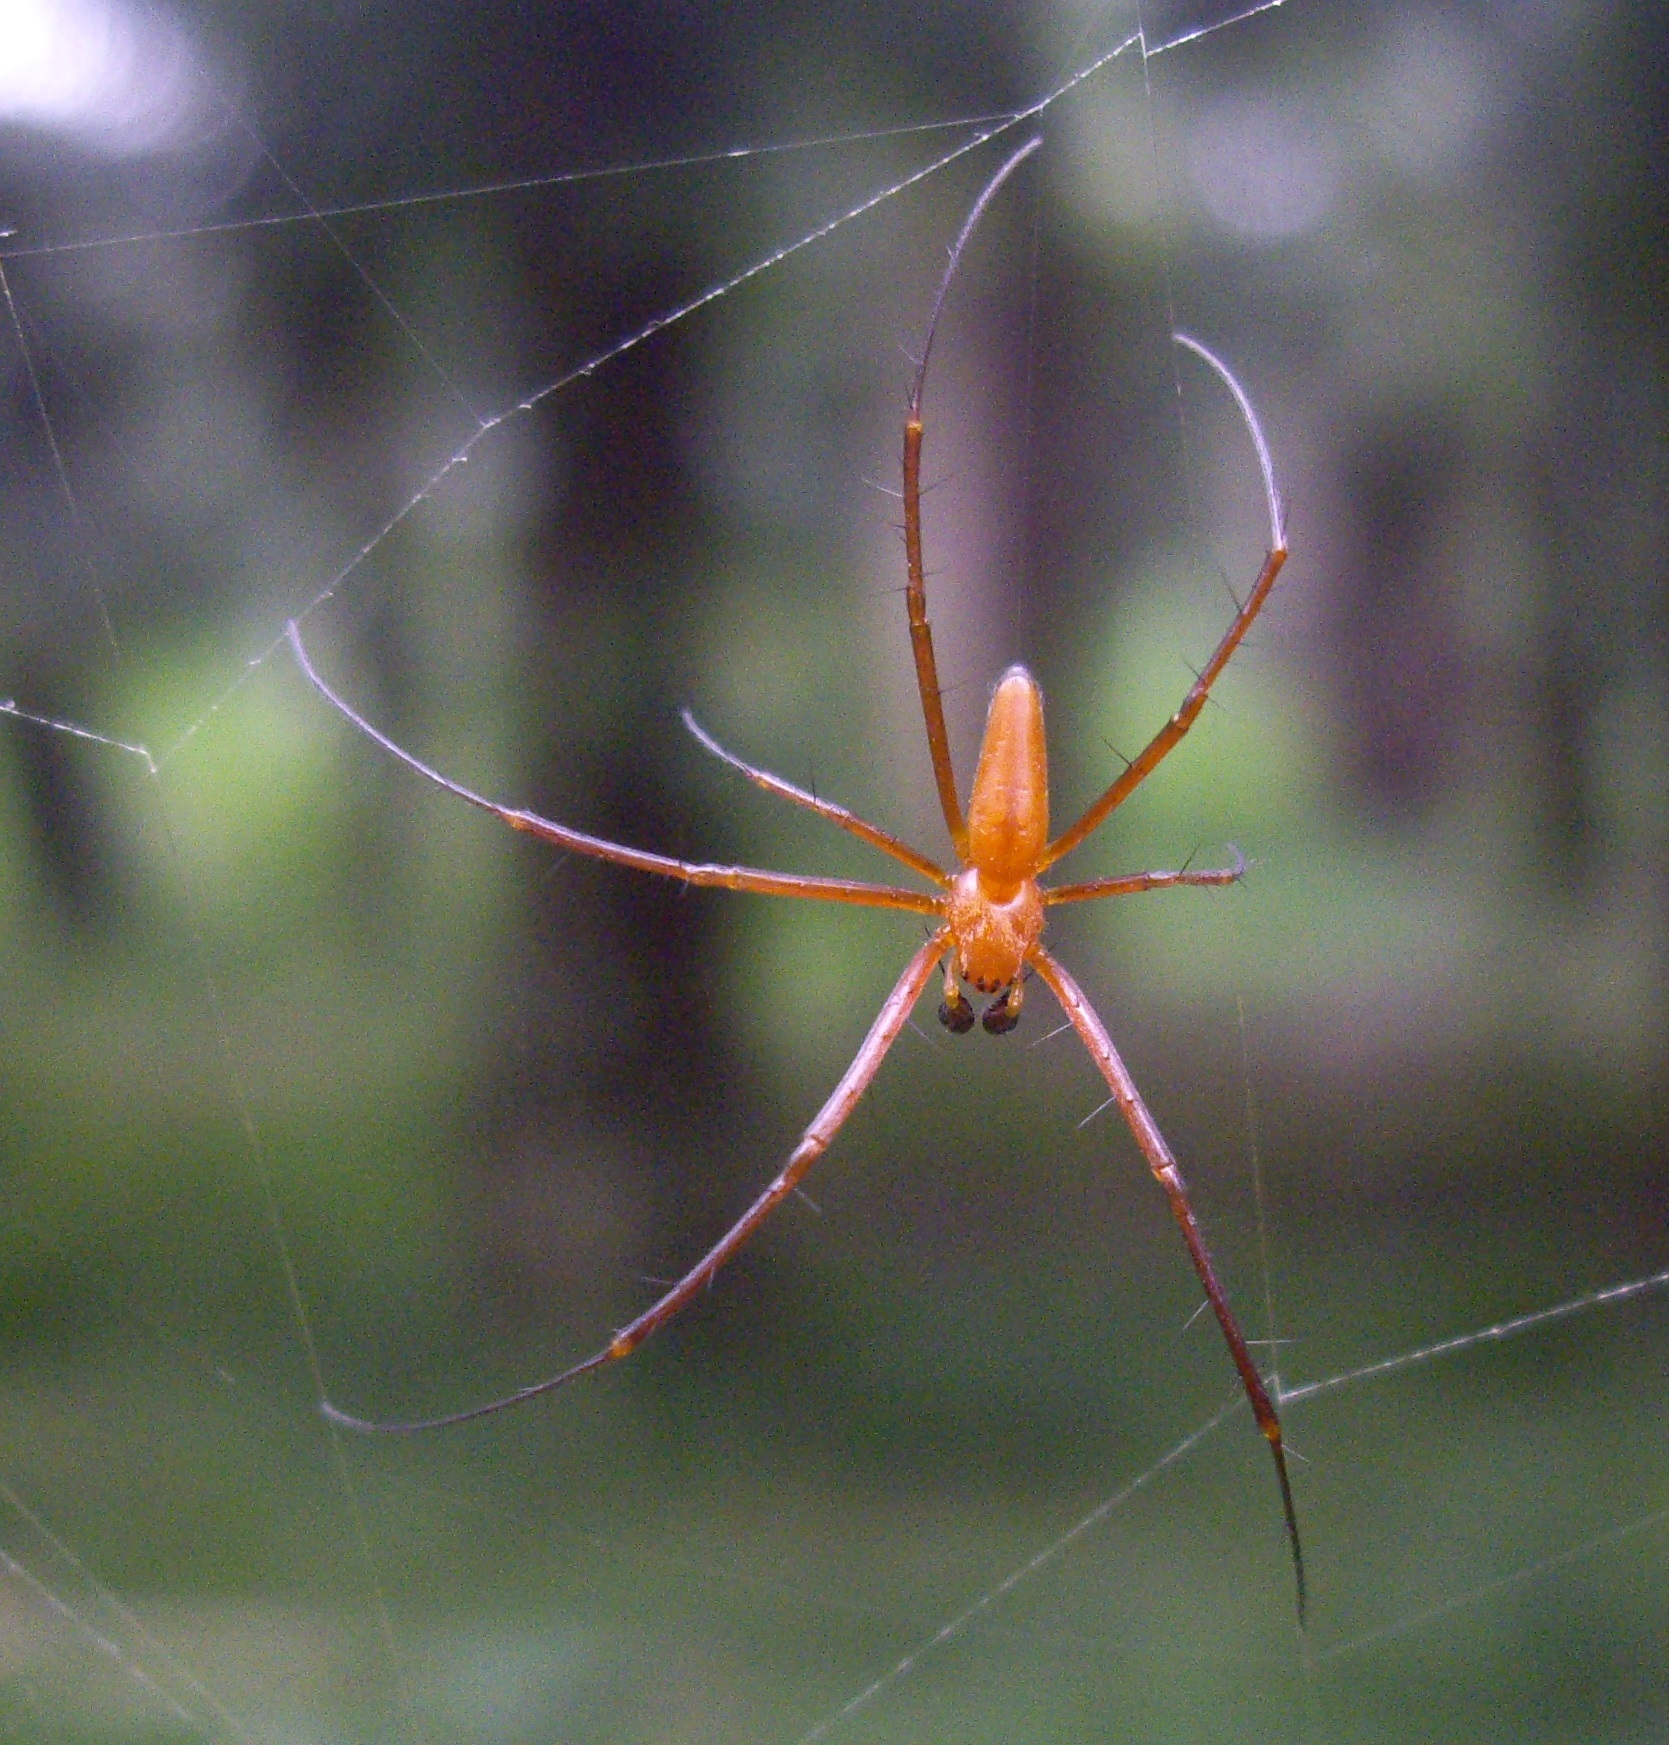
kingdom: Animalia
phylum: Arthropoda
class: Arachnida
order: Araneae
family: Araneidae
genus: Nephila
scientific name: Nephila pilipes
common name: Giant golden orb weaver
